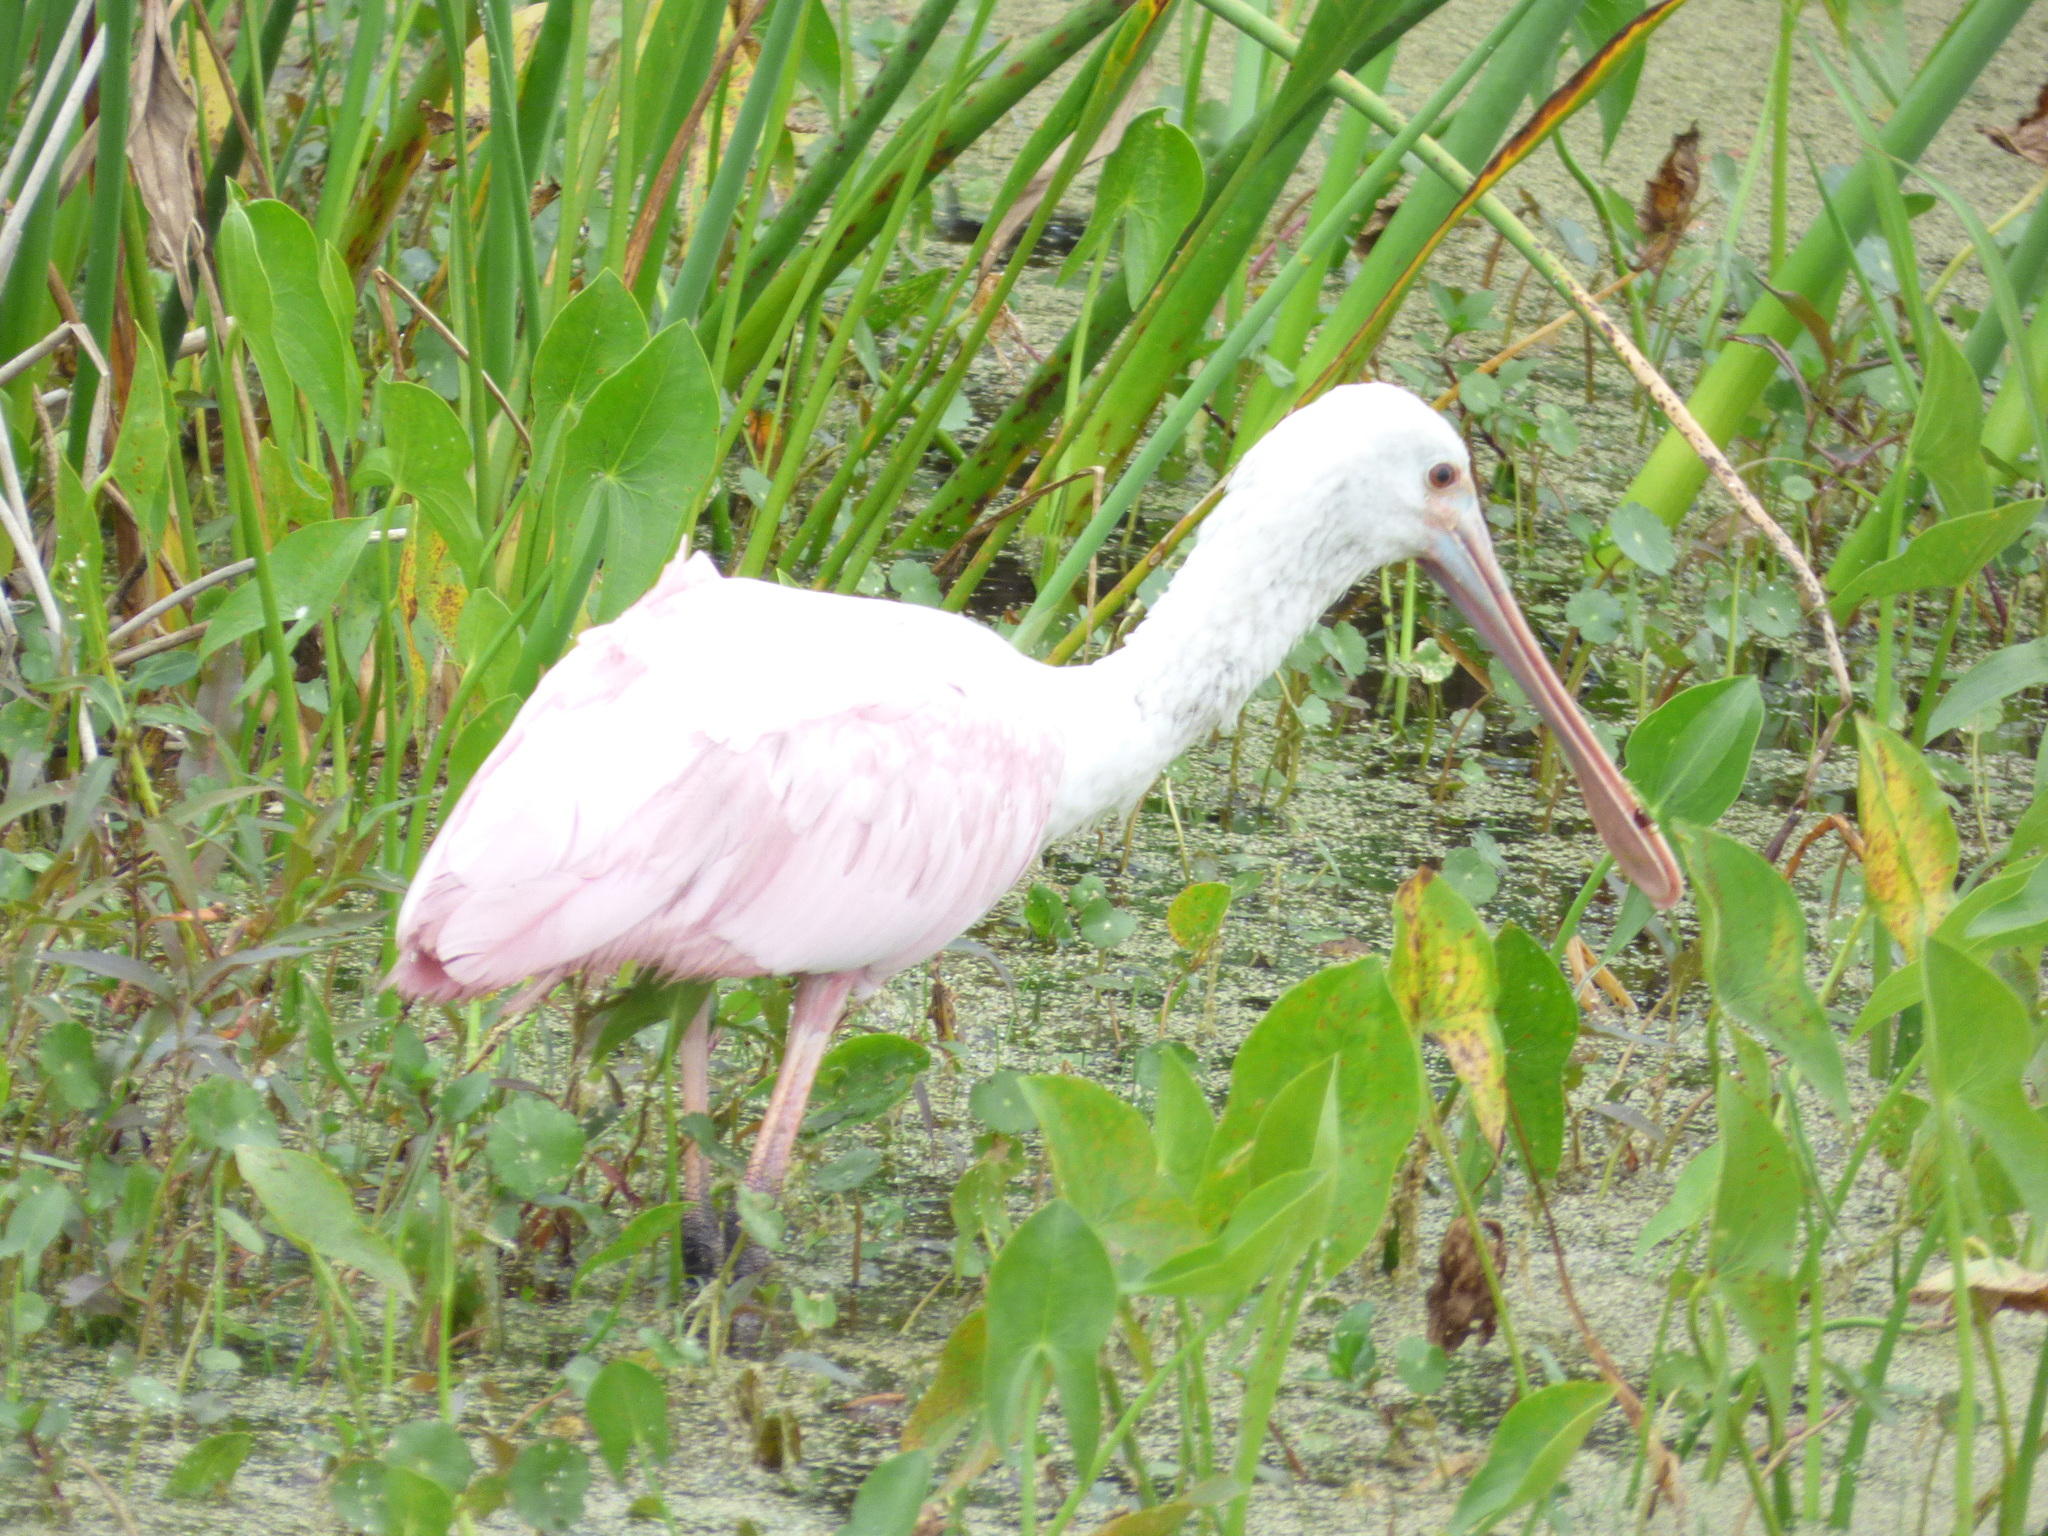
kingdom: Animalia
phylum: Chordata
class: Aves
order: Pelecaniformes
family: Threskiornithidae
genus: Platalea
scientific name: Platalea ajaja
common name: Roseate spoonbill
